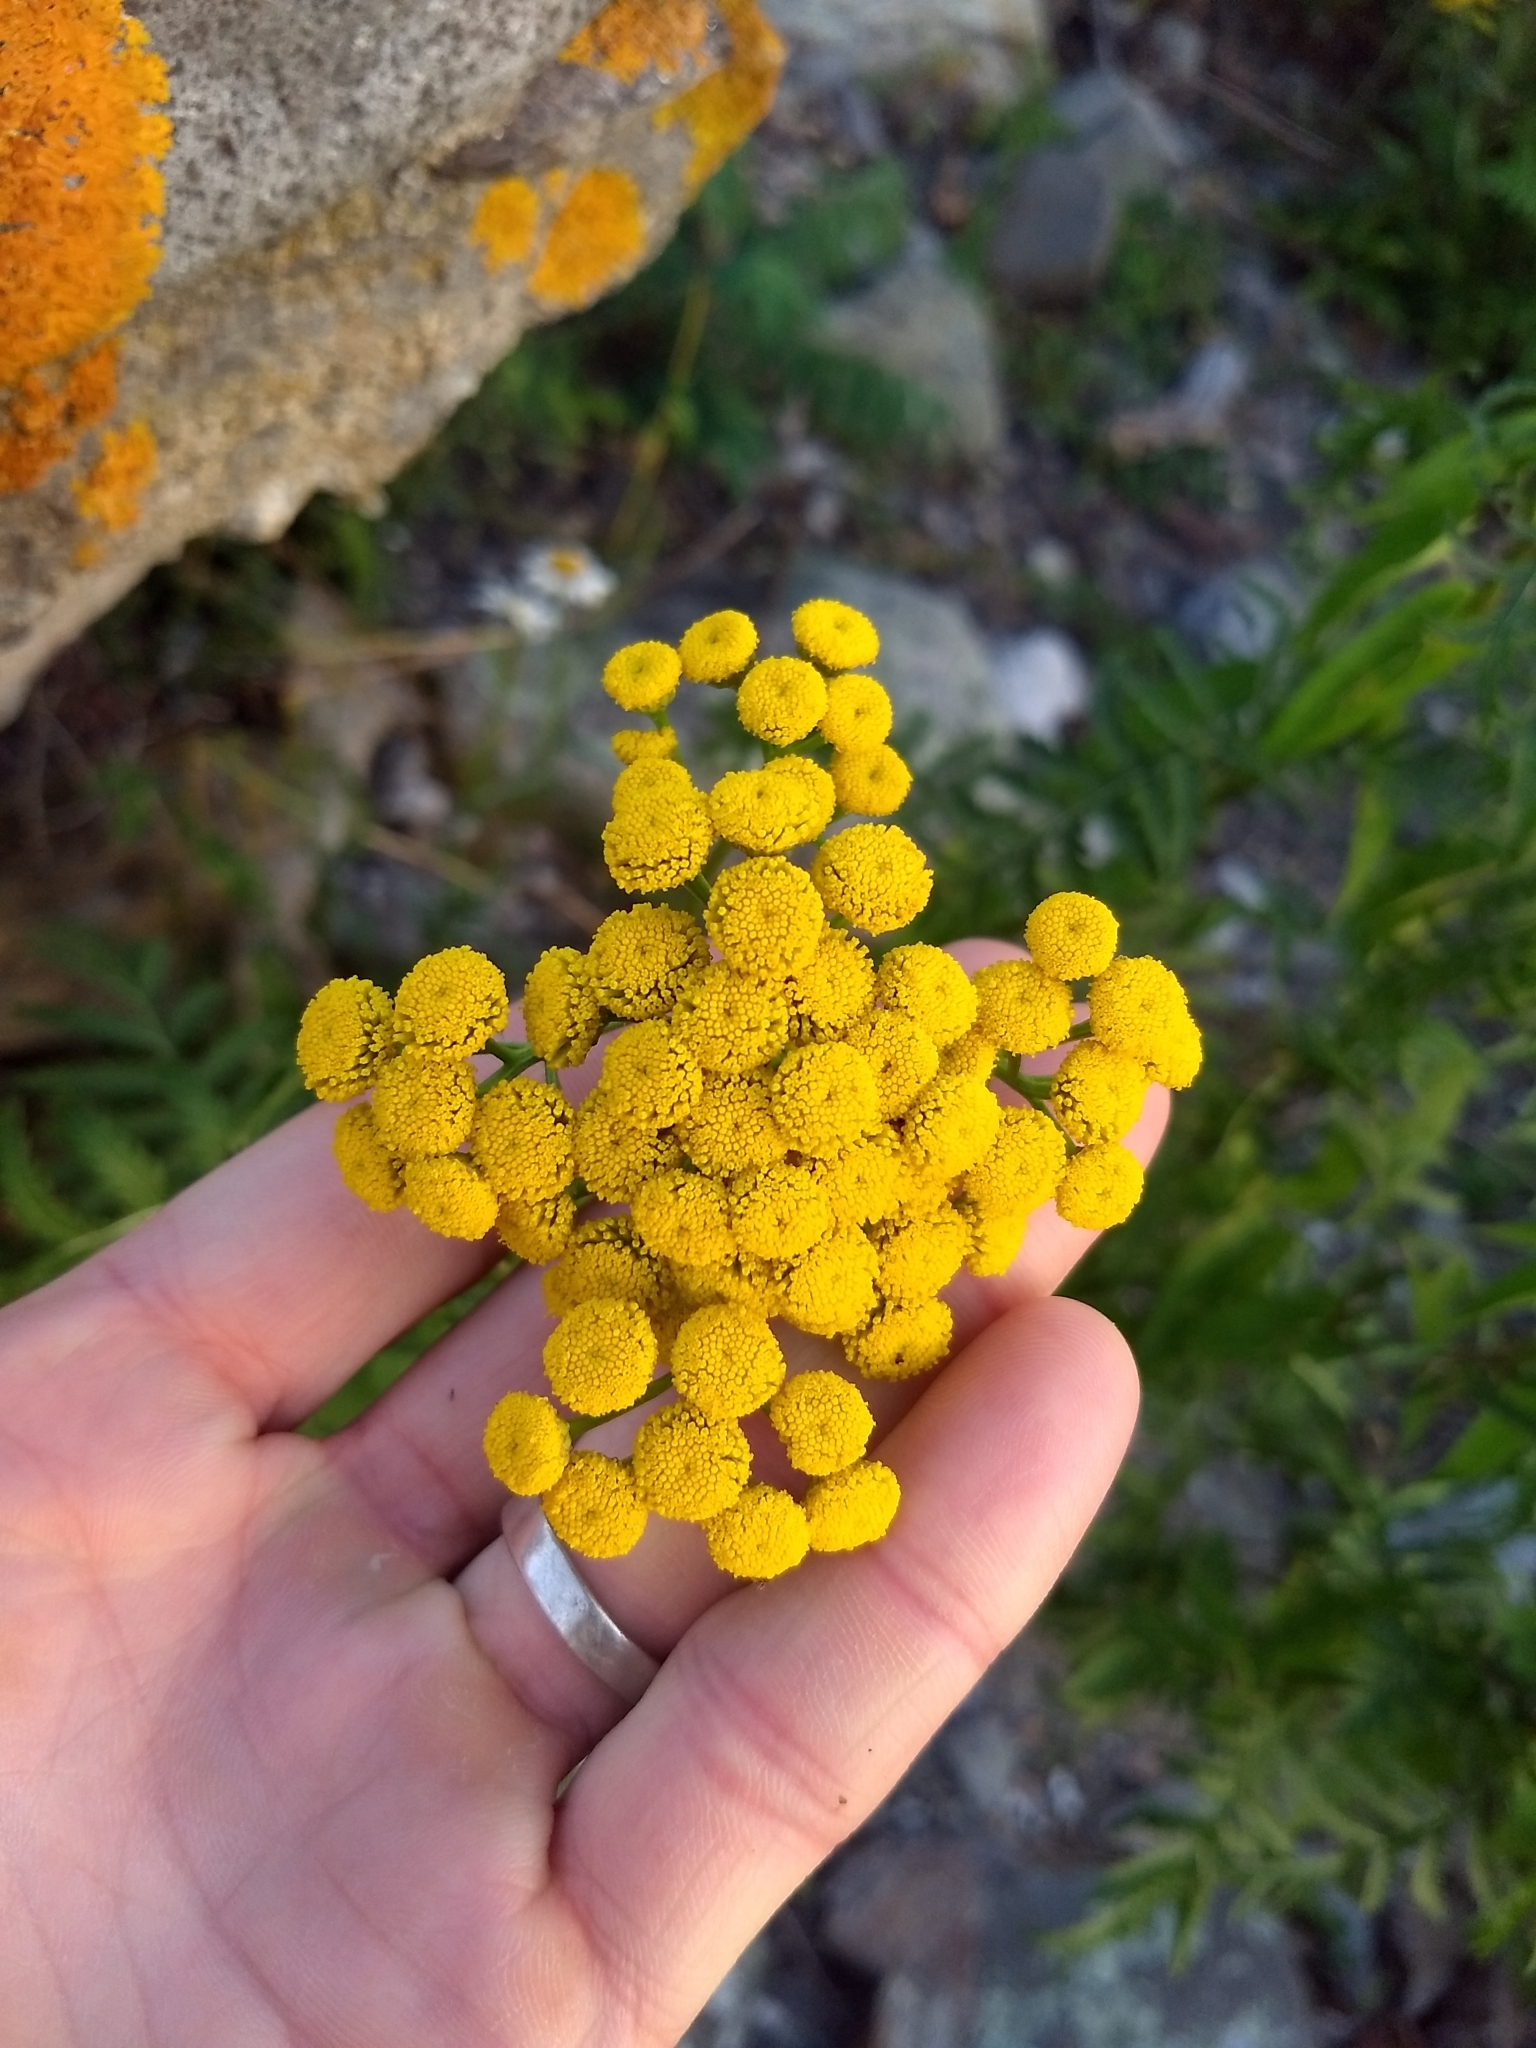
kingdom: Plantae
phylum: Tracheophyta
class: Magnoliopsida
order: Asterales
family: Asteraceae
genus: Tanacetum
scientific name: Tanacetum vulgare
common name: Common tansy
